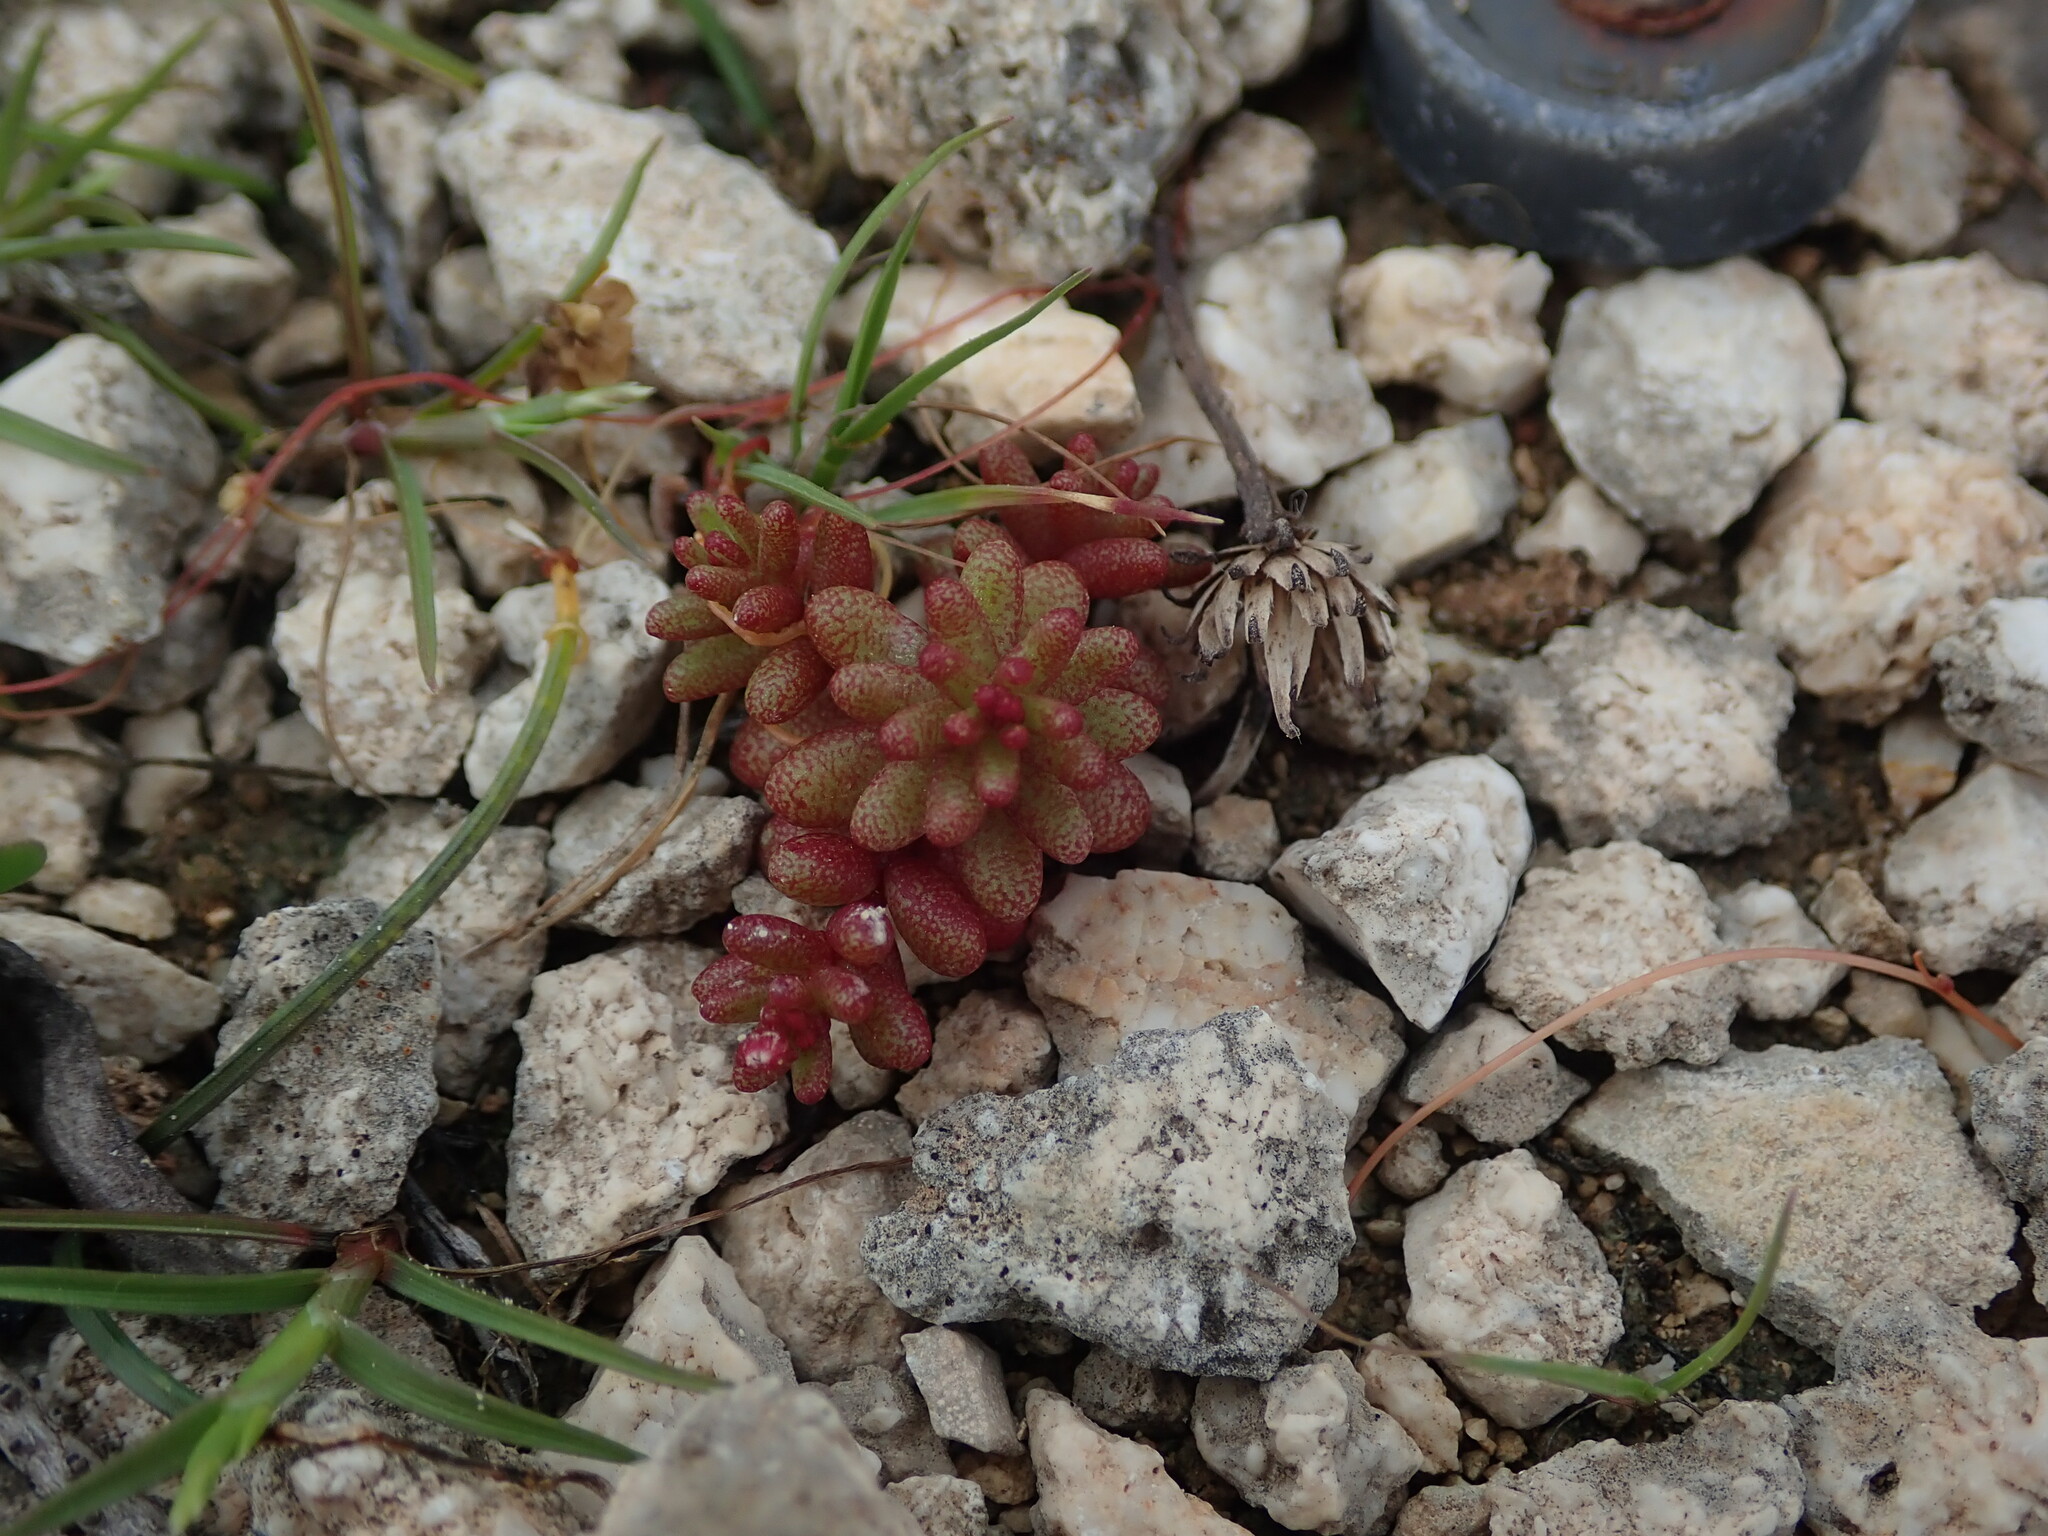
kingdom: Plantae
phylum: Tracheophyta
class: Magnoliopsida
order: Saxifragales
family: Crassulaceae
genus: Sedum
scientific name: Sedum caeruleum
